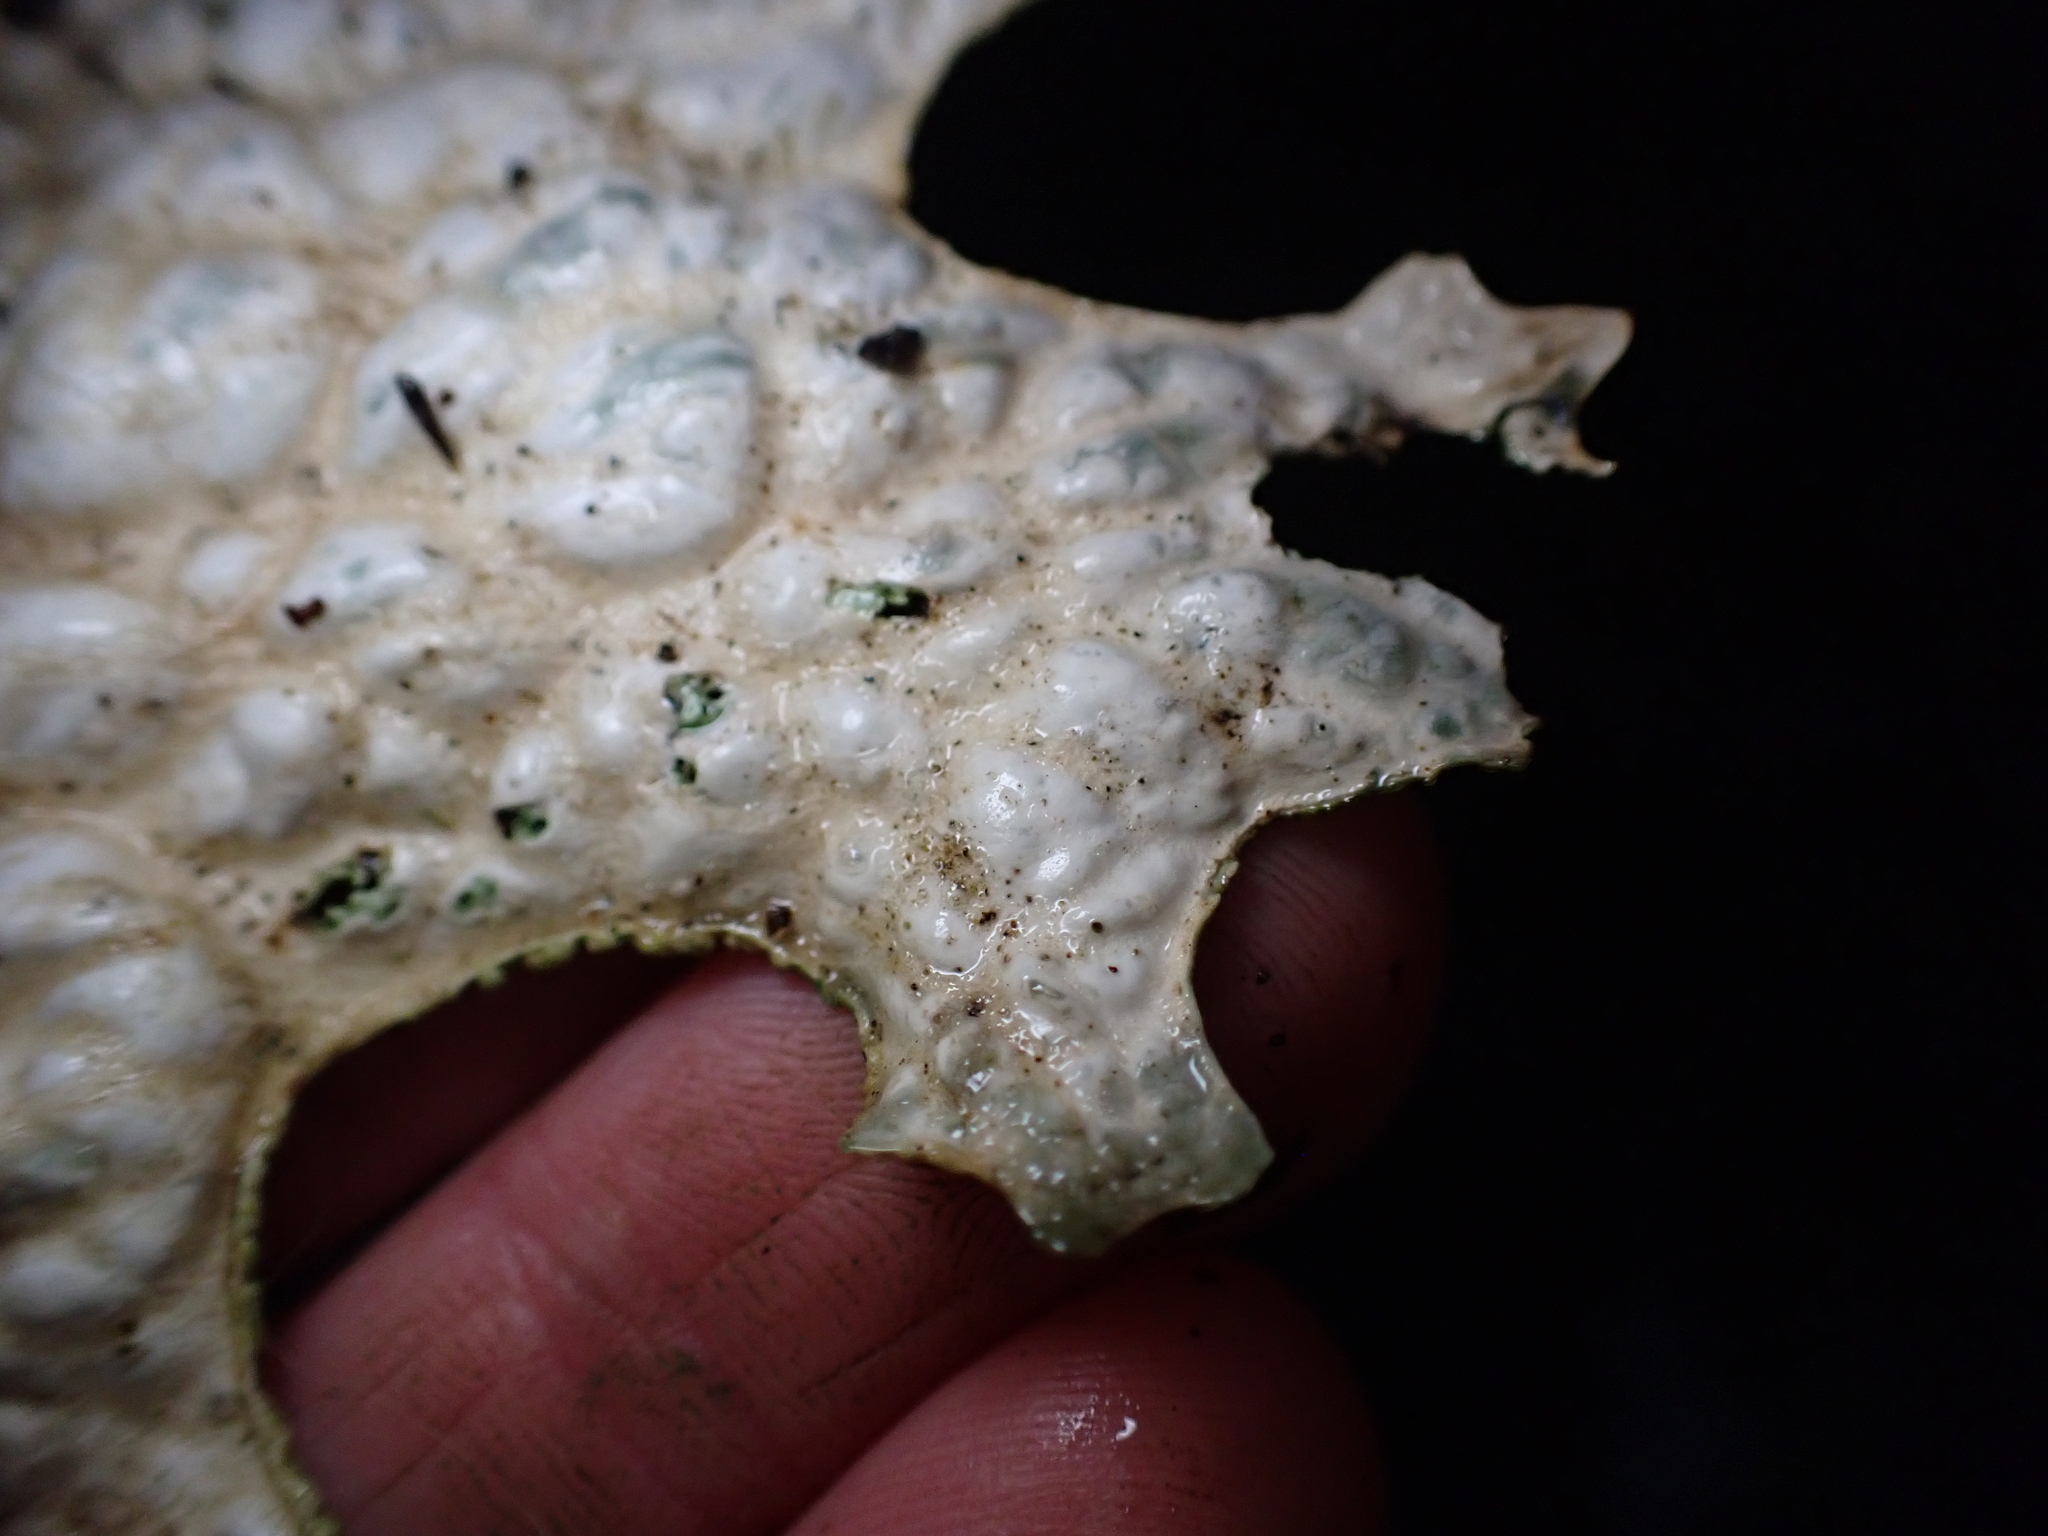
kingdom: Fungi
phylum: Ascomycota
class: Lecanoromycetes
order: Peltigerales
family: Lobariaceae
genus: Lobaria
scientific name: Lobaria pulmonaria
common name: Lungwort
